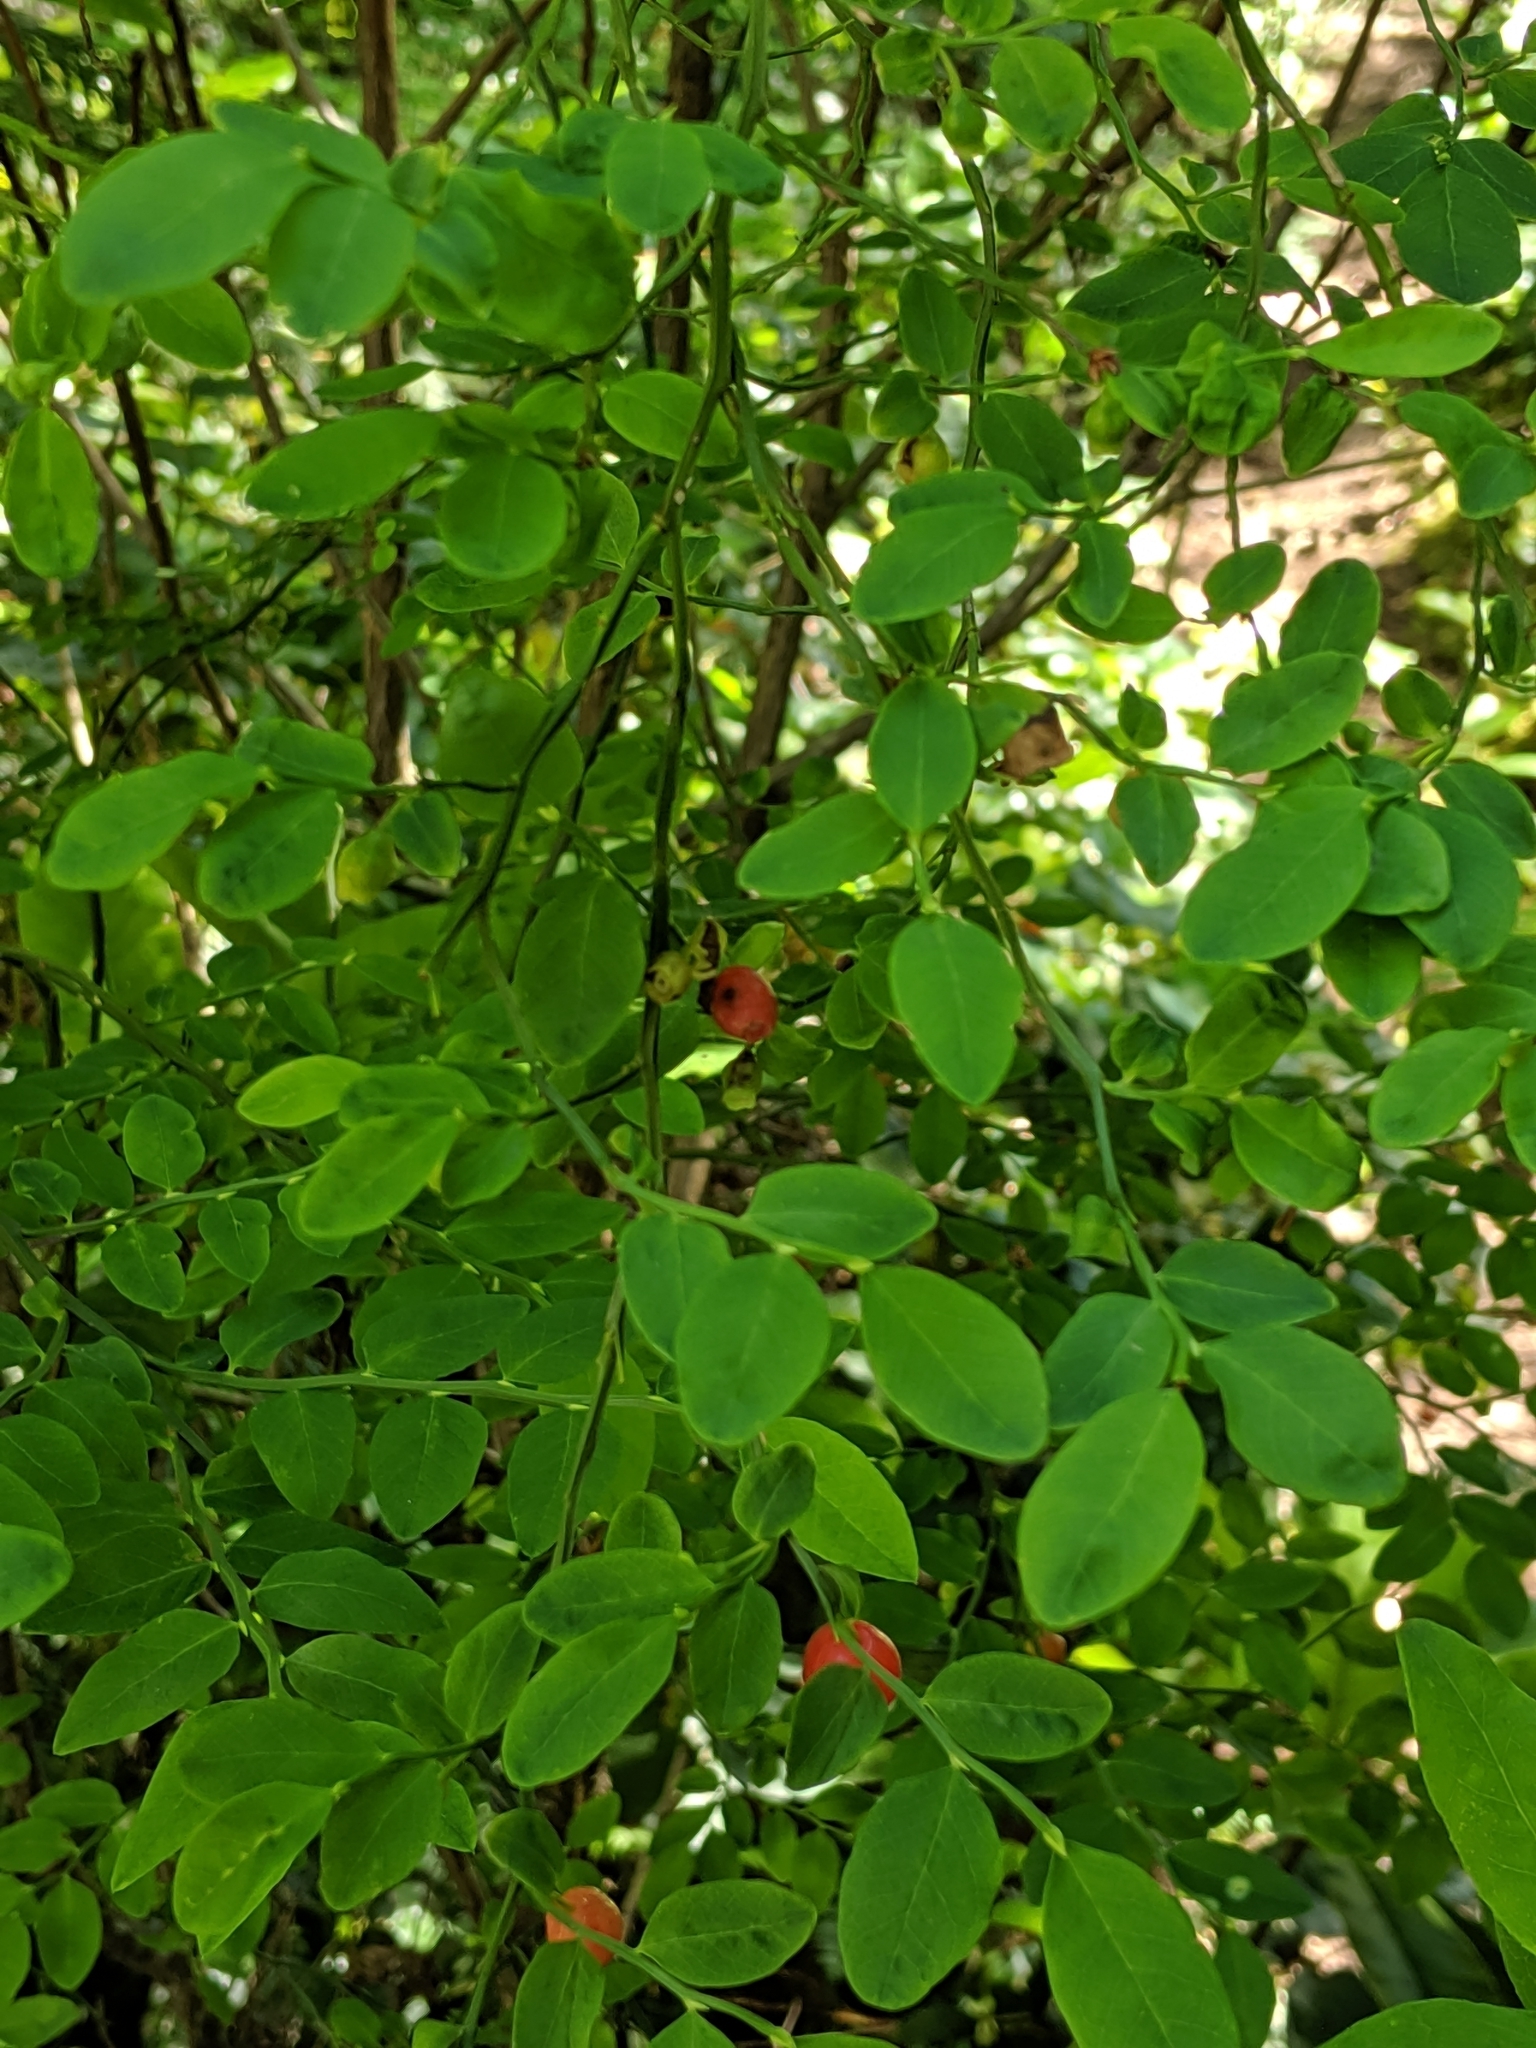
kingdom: Plantae
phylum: Tracheophyta
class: Magnoliopsida
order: Ericales
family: Ericaceae
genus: Vaccinium
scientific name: Vaccinium parvifolium
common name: Red-huckleberry
